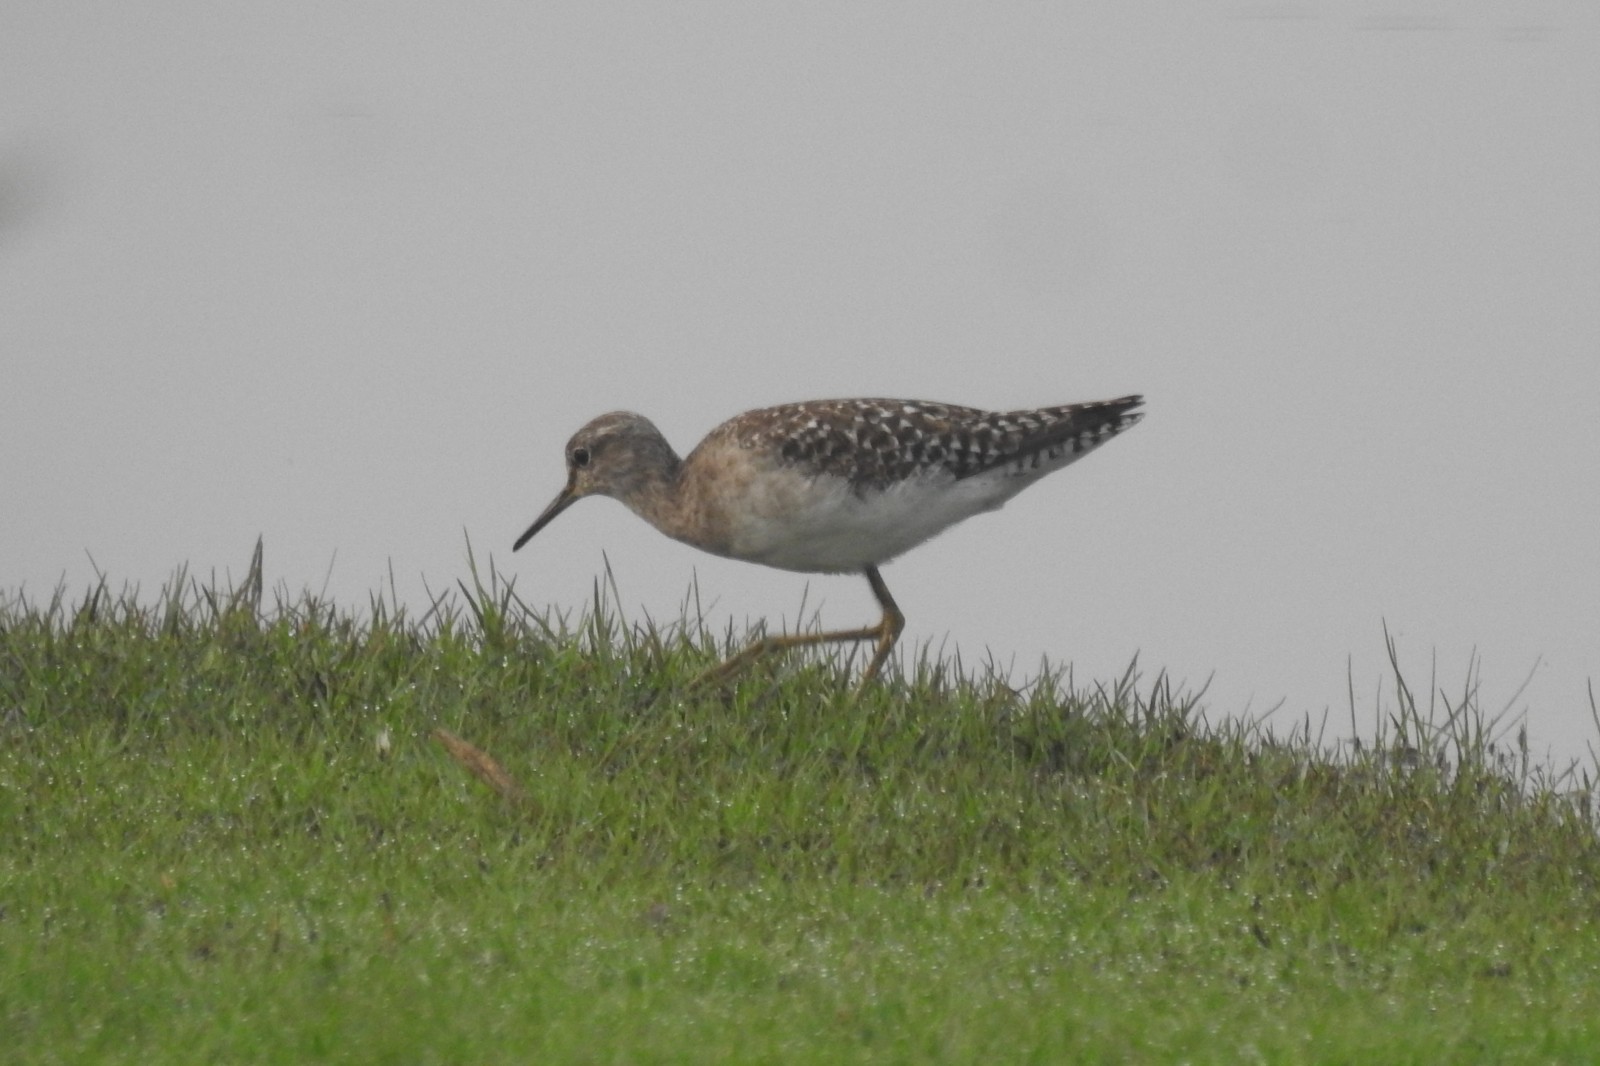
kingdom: Animalia
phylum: Chordata
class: Aves
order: Charadriiformes
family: Scolopacidae
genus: Tringa
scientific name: Tringa glareola
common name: Wood sandpiper
